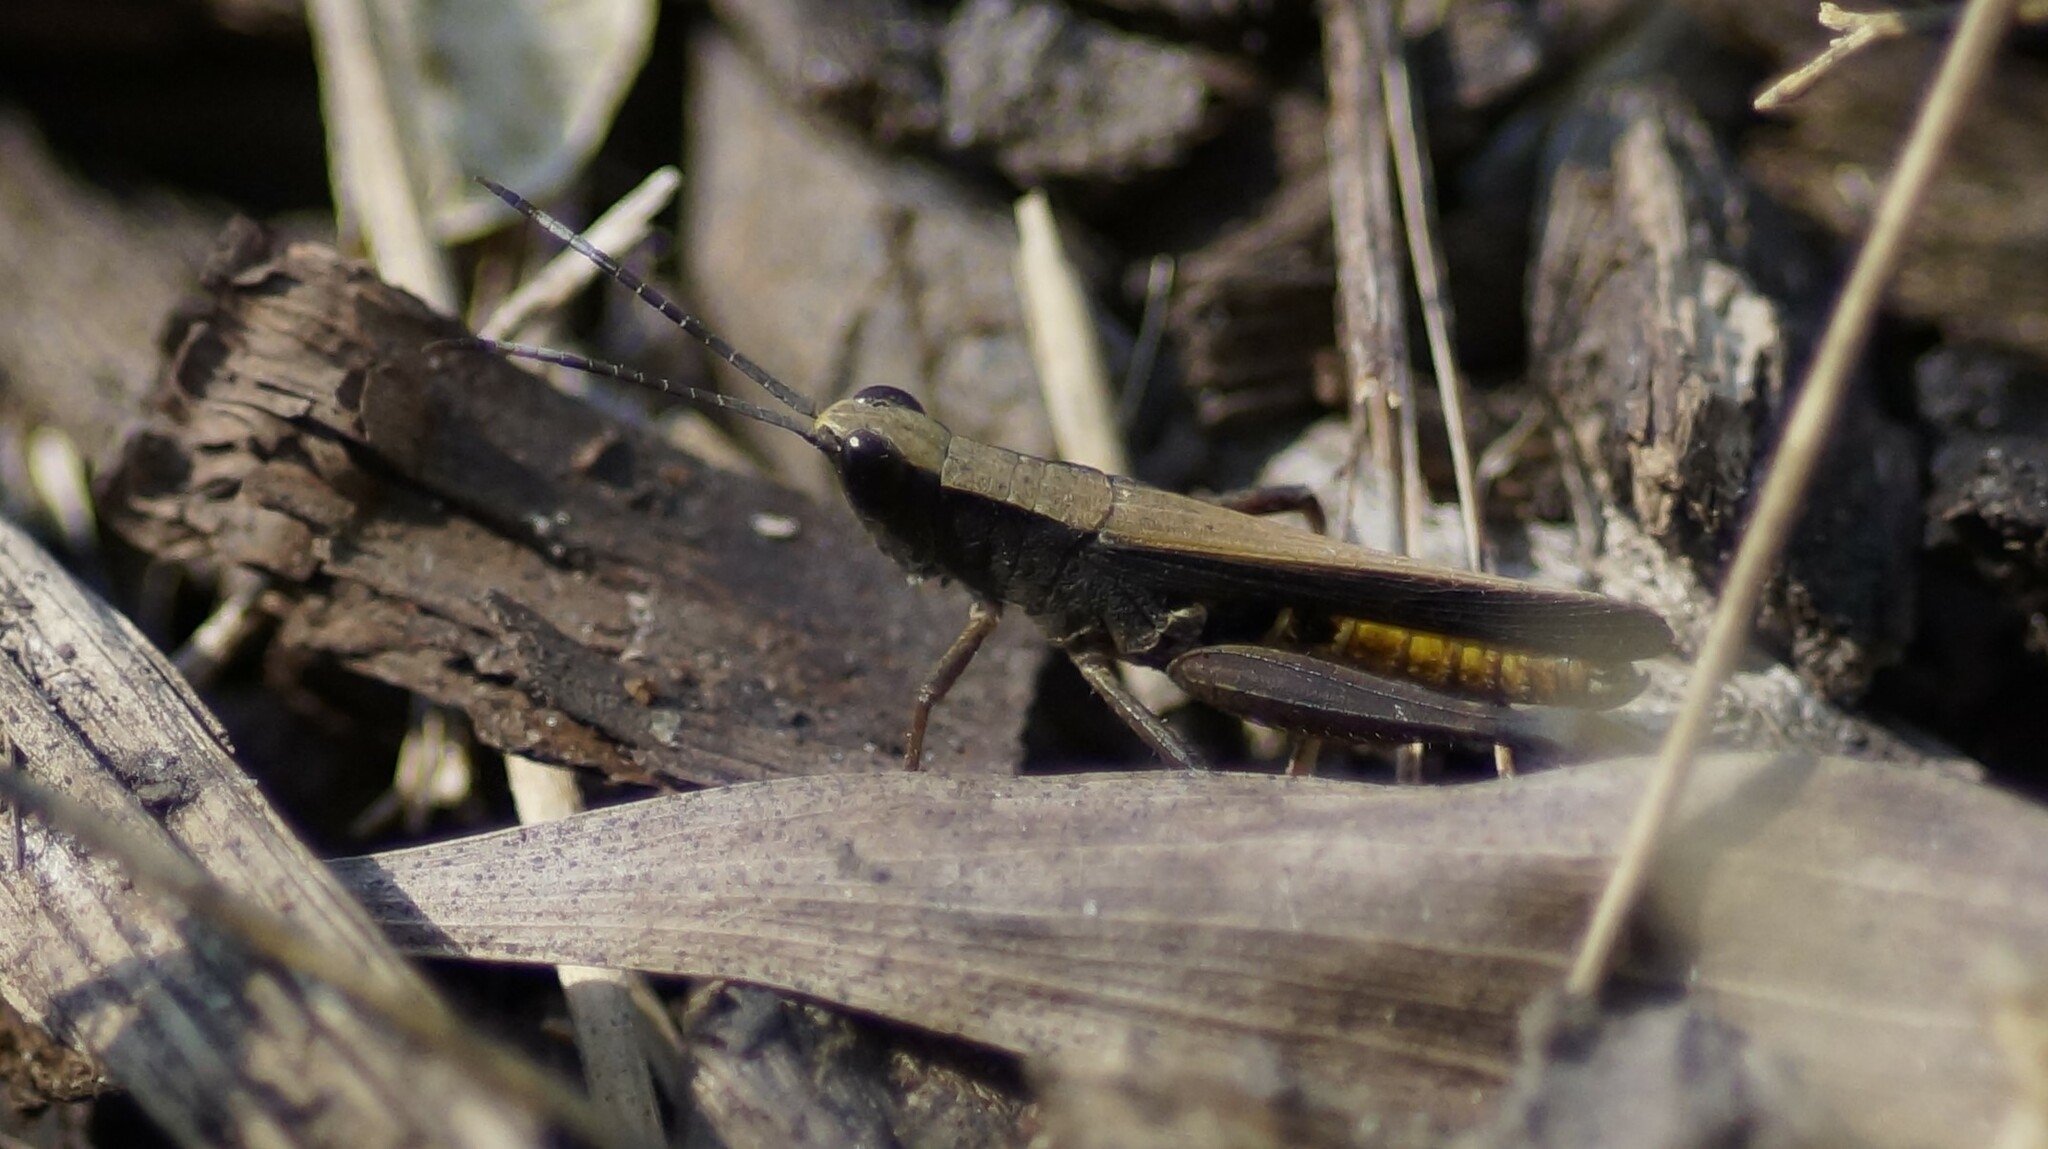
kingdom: Animalia
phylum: Arthropoda
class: Insecta
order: Orthoptera
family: Acrididae
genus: Rectitropis
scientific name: Rectitropis
